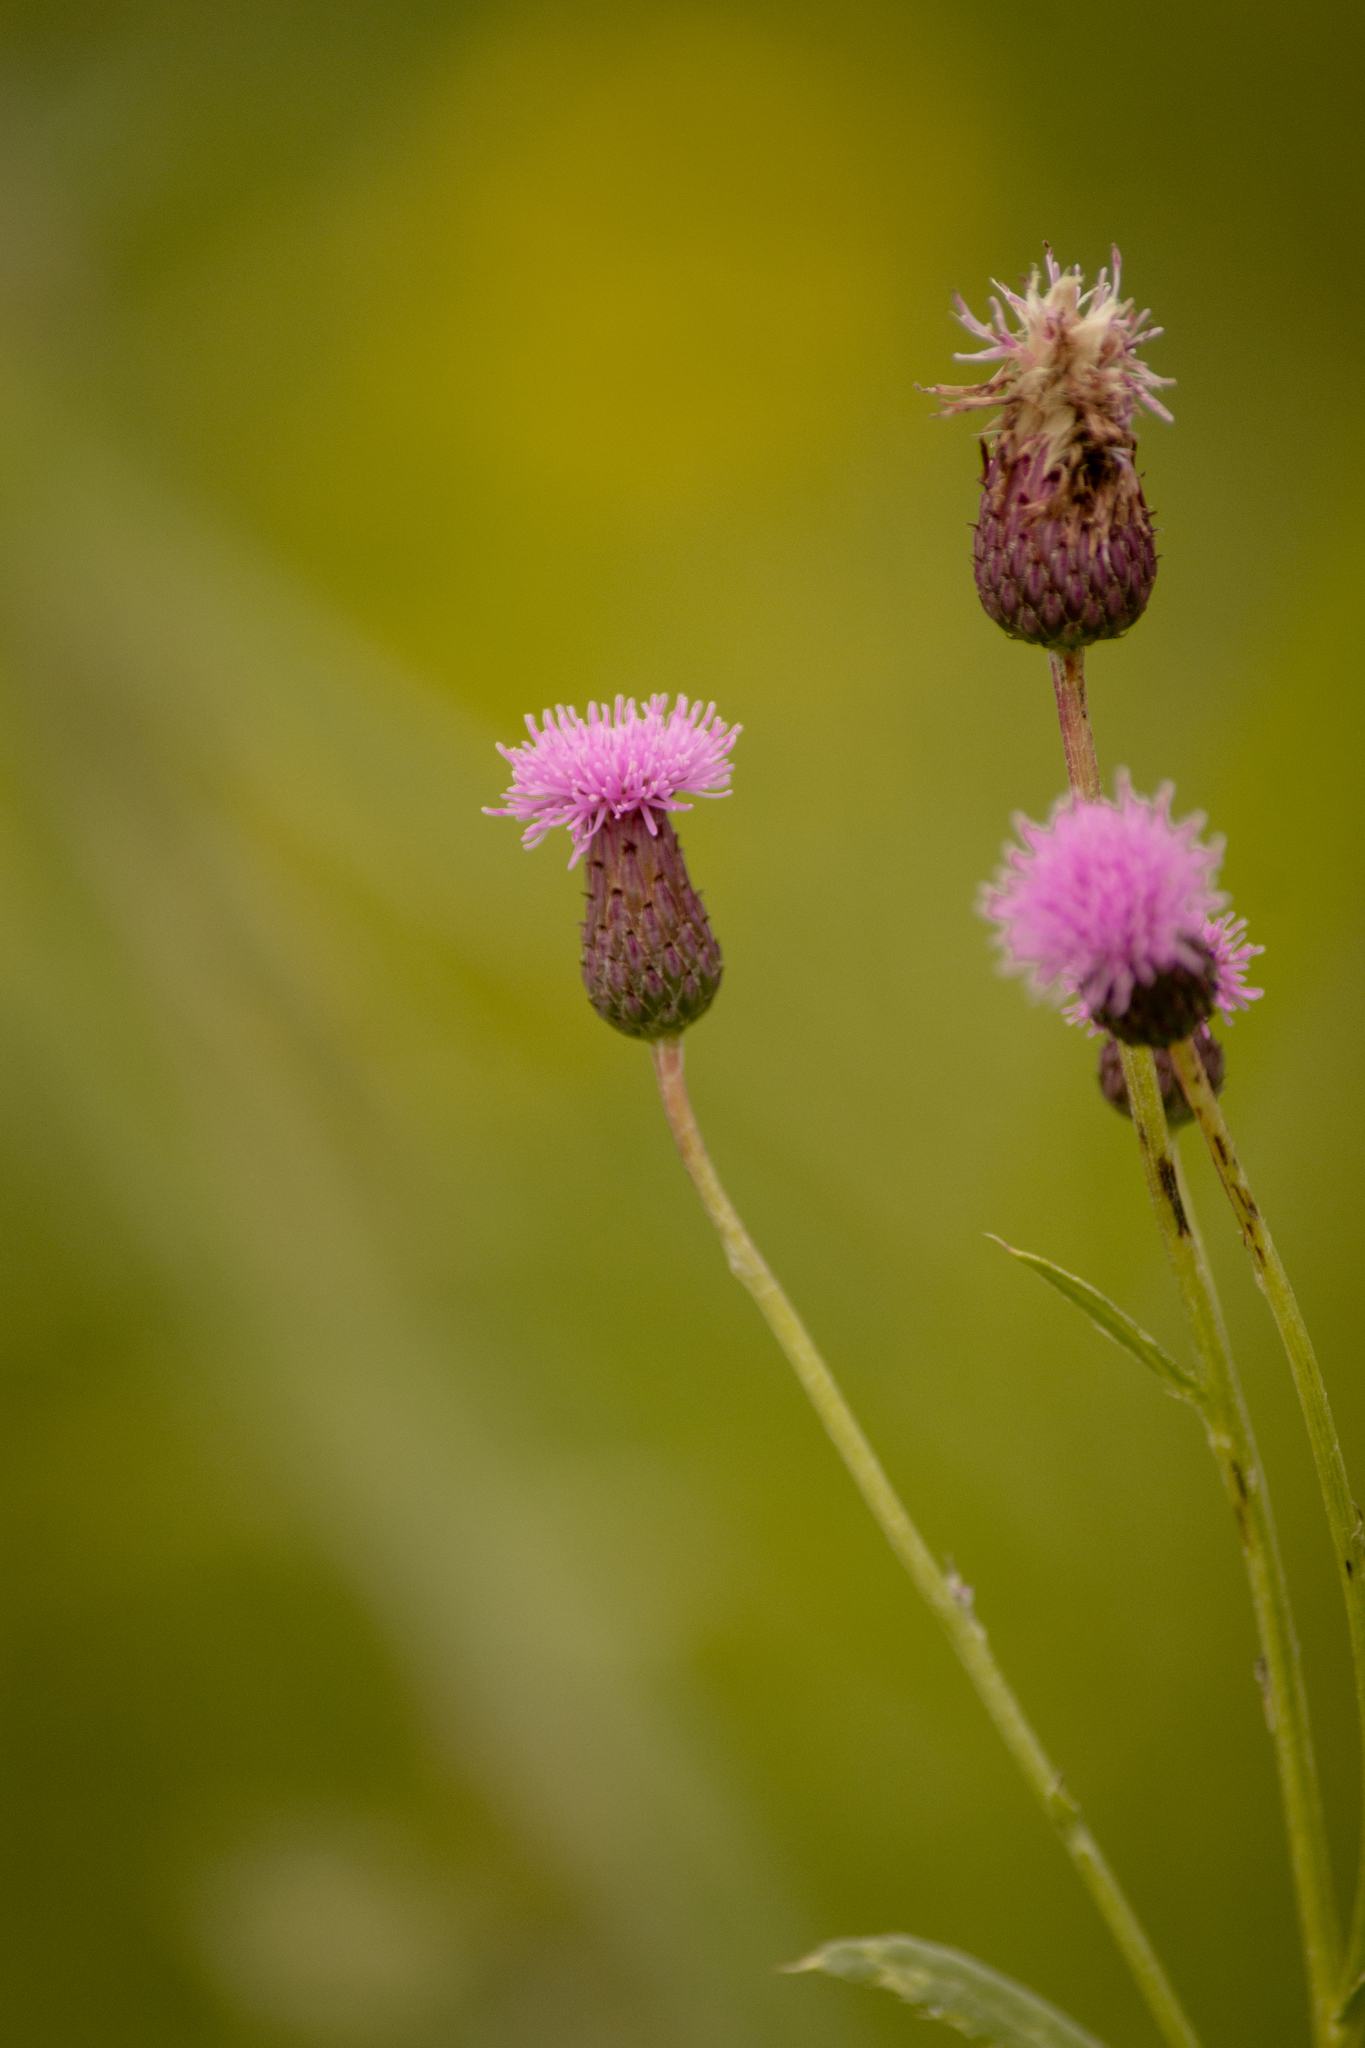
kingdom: Plantae
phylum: Tracheophyta
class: Magnoliopsida
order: Asterales
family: Asteraceae
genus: Cirsium
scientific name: Cirsium arvense
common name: Creeping thistle
